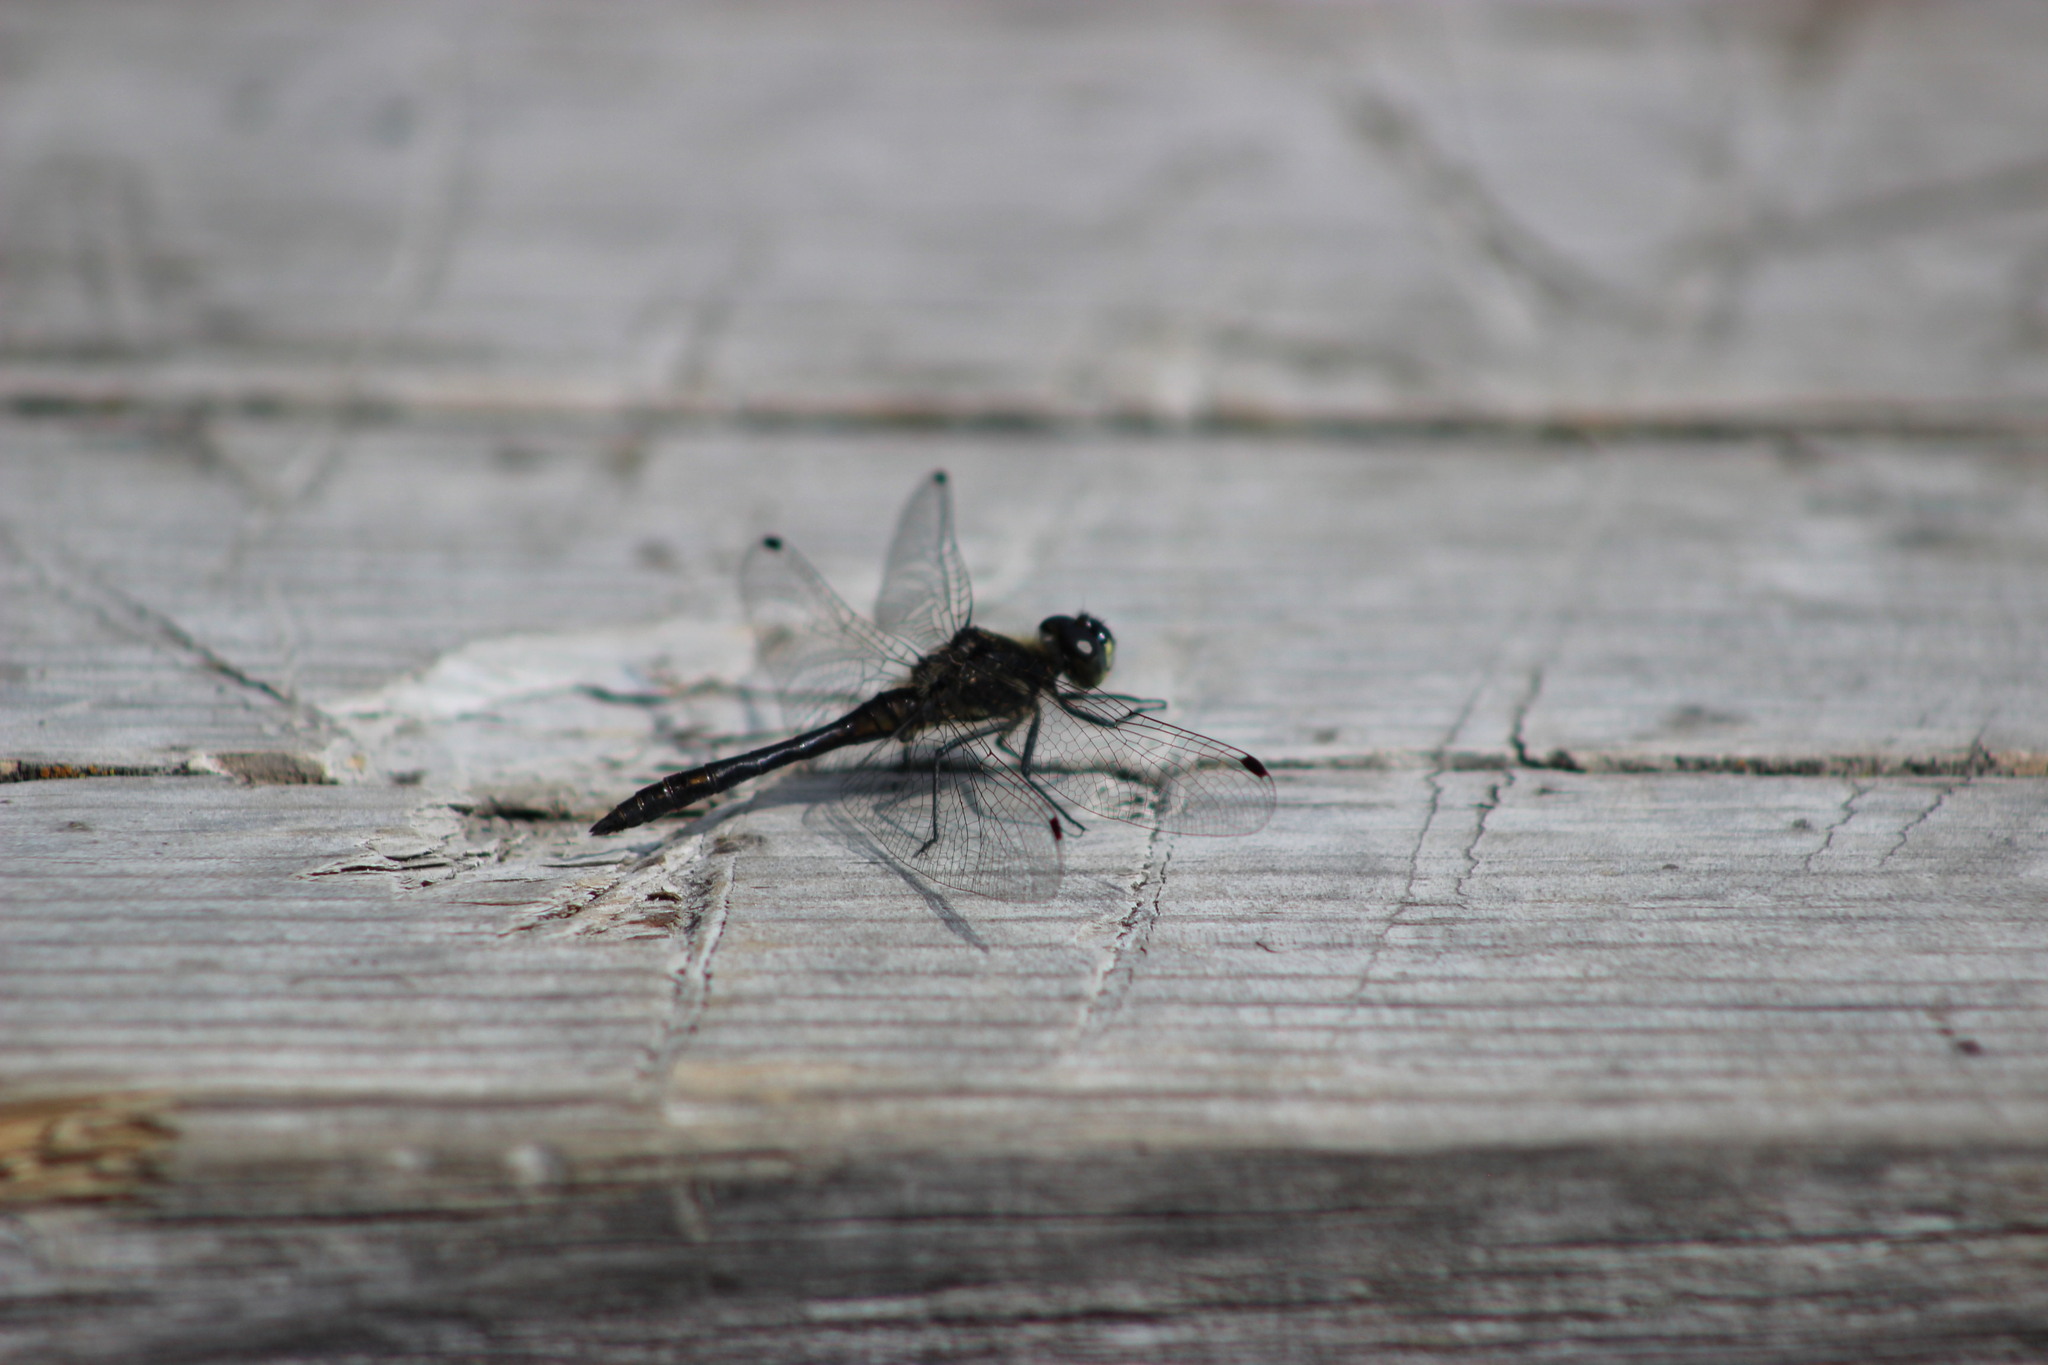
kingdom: Animalia
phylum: Arthropoda
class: Insecta
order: Odonata
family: Libellulidae
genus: Sympetrum
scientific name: Sympetrum danae
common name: Black darter
